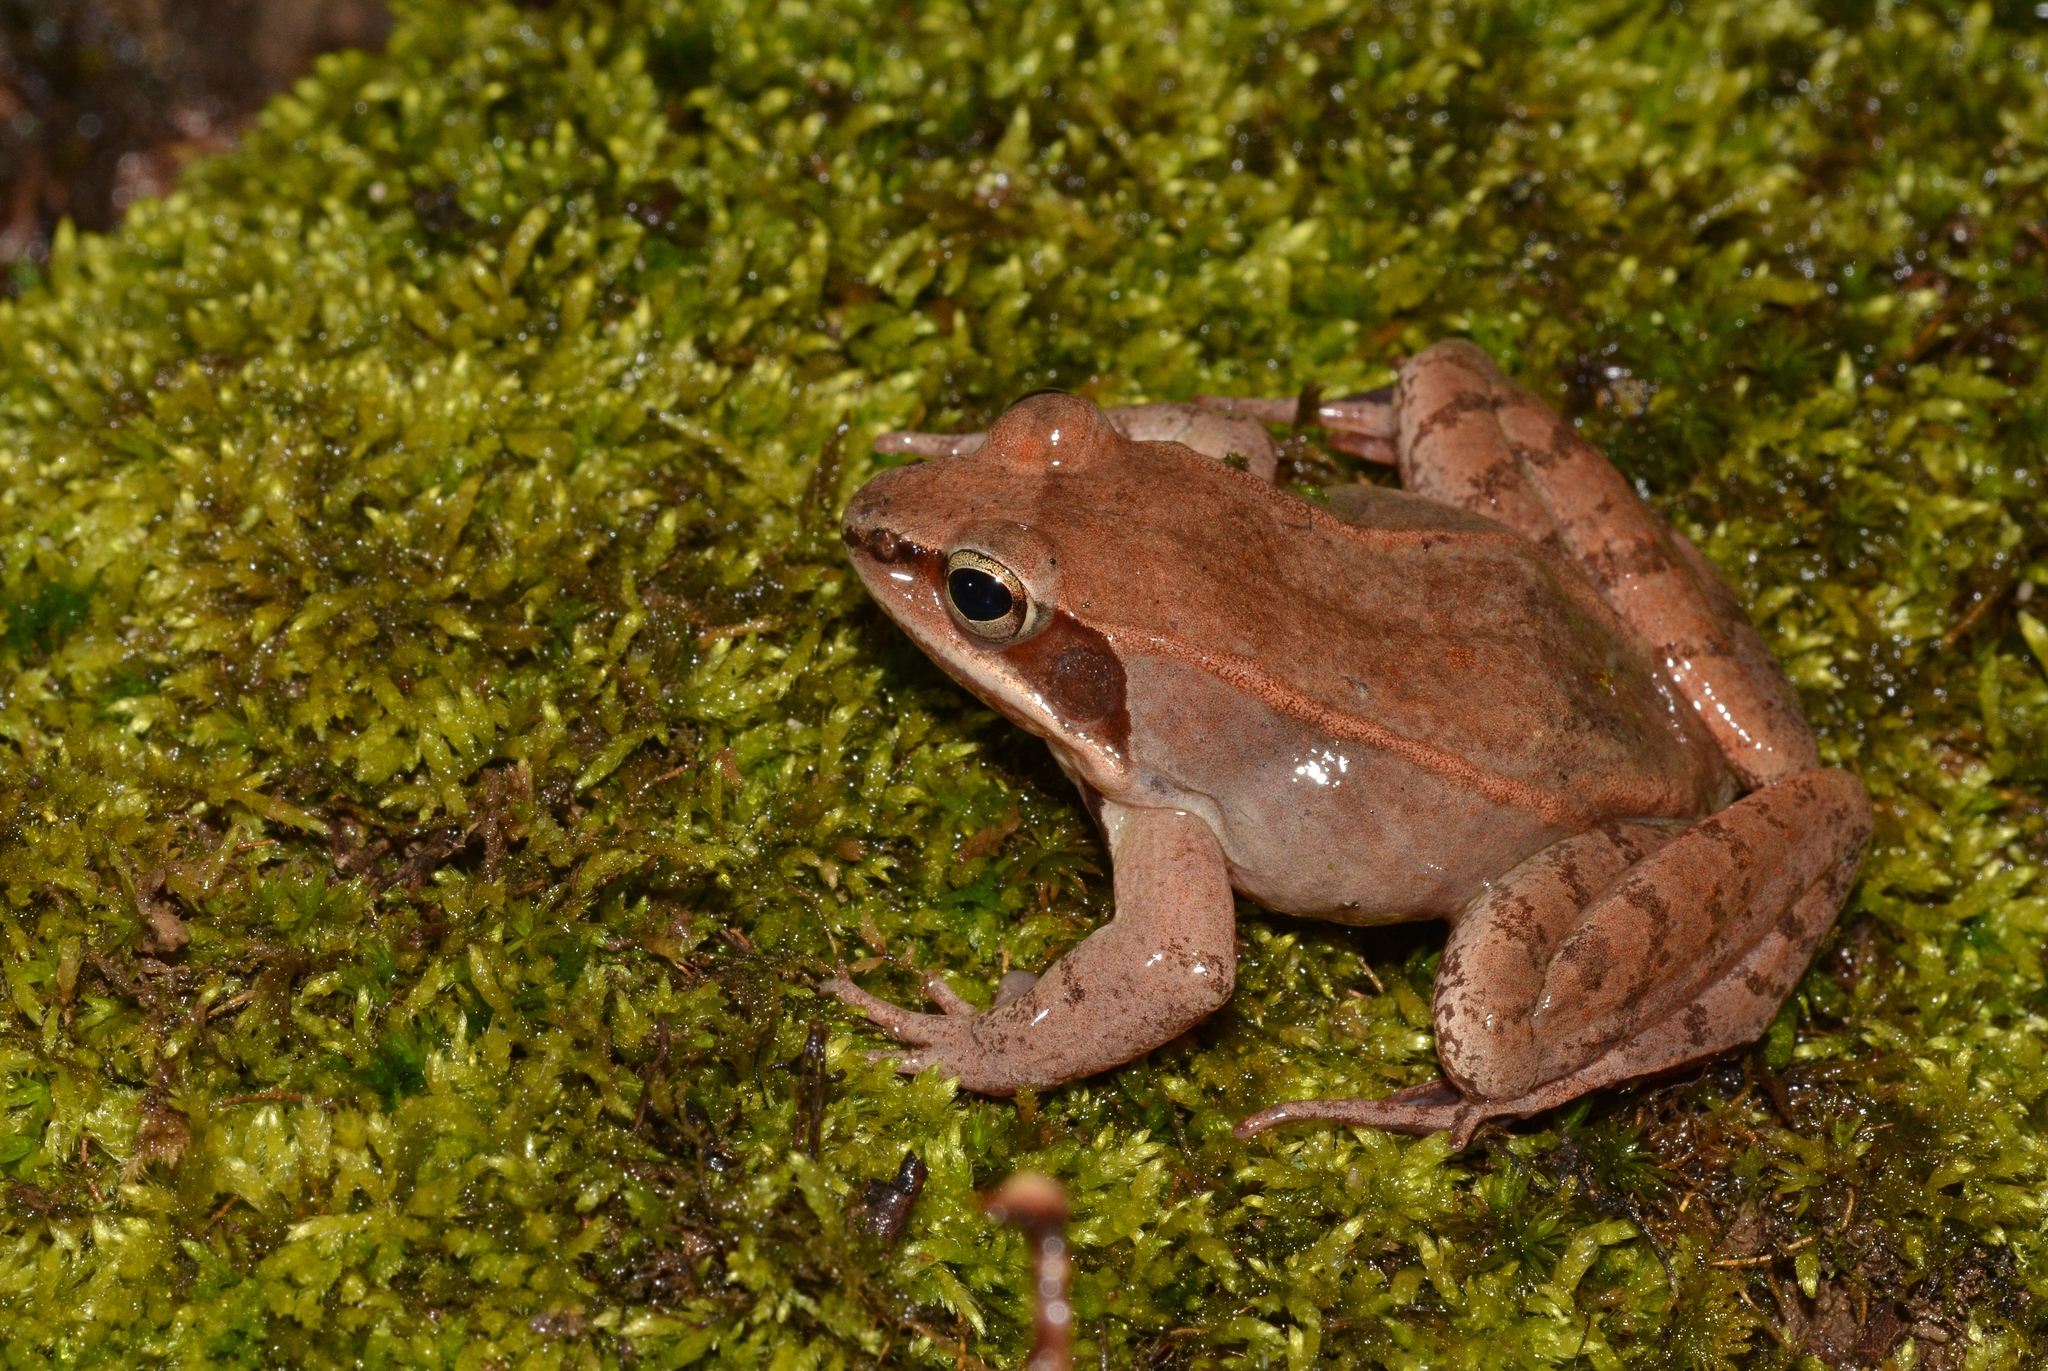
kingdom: Animalia
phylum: Chordata
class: Amphibia
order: Anura
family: Ranidae
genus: Lithobates
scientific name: Lithobates sylvaticus
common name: Wood frog
